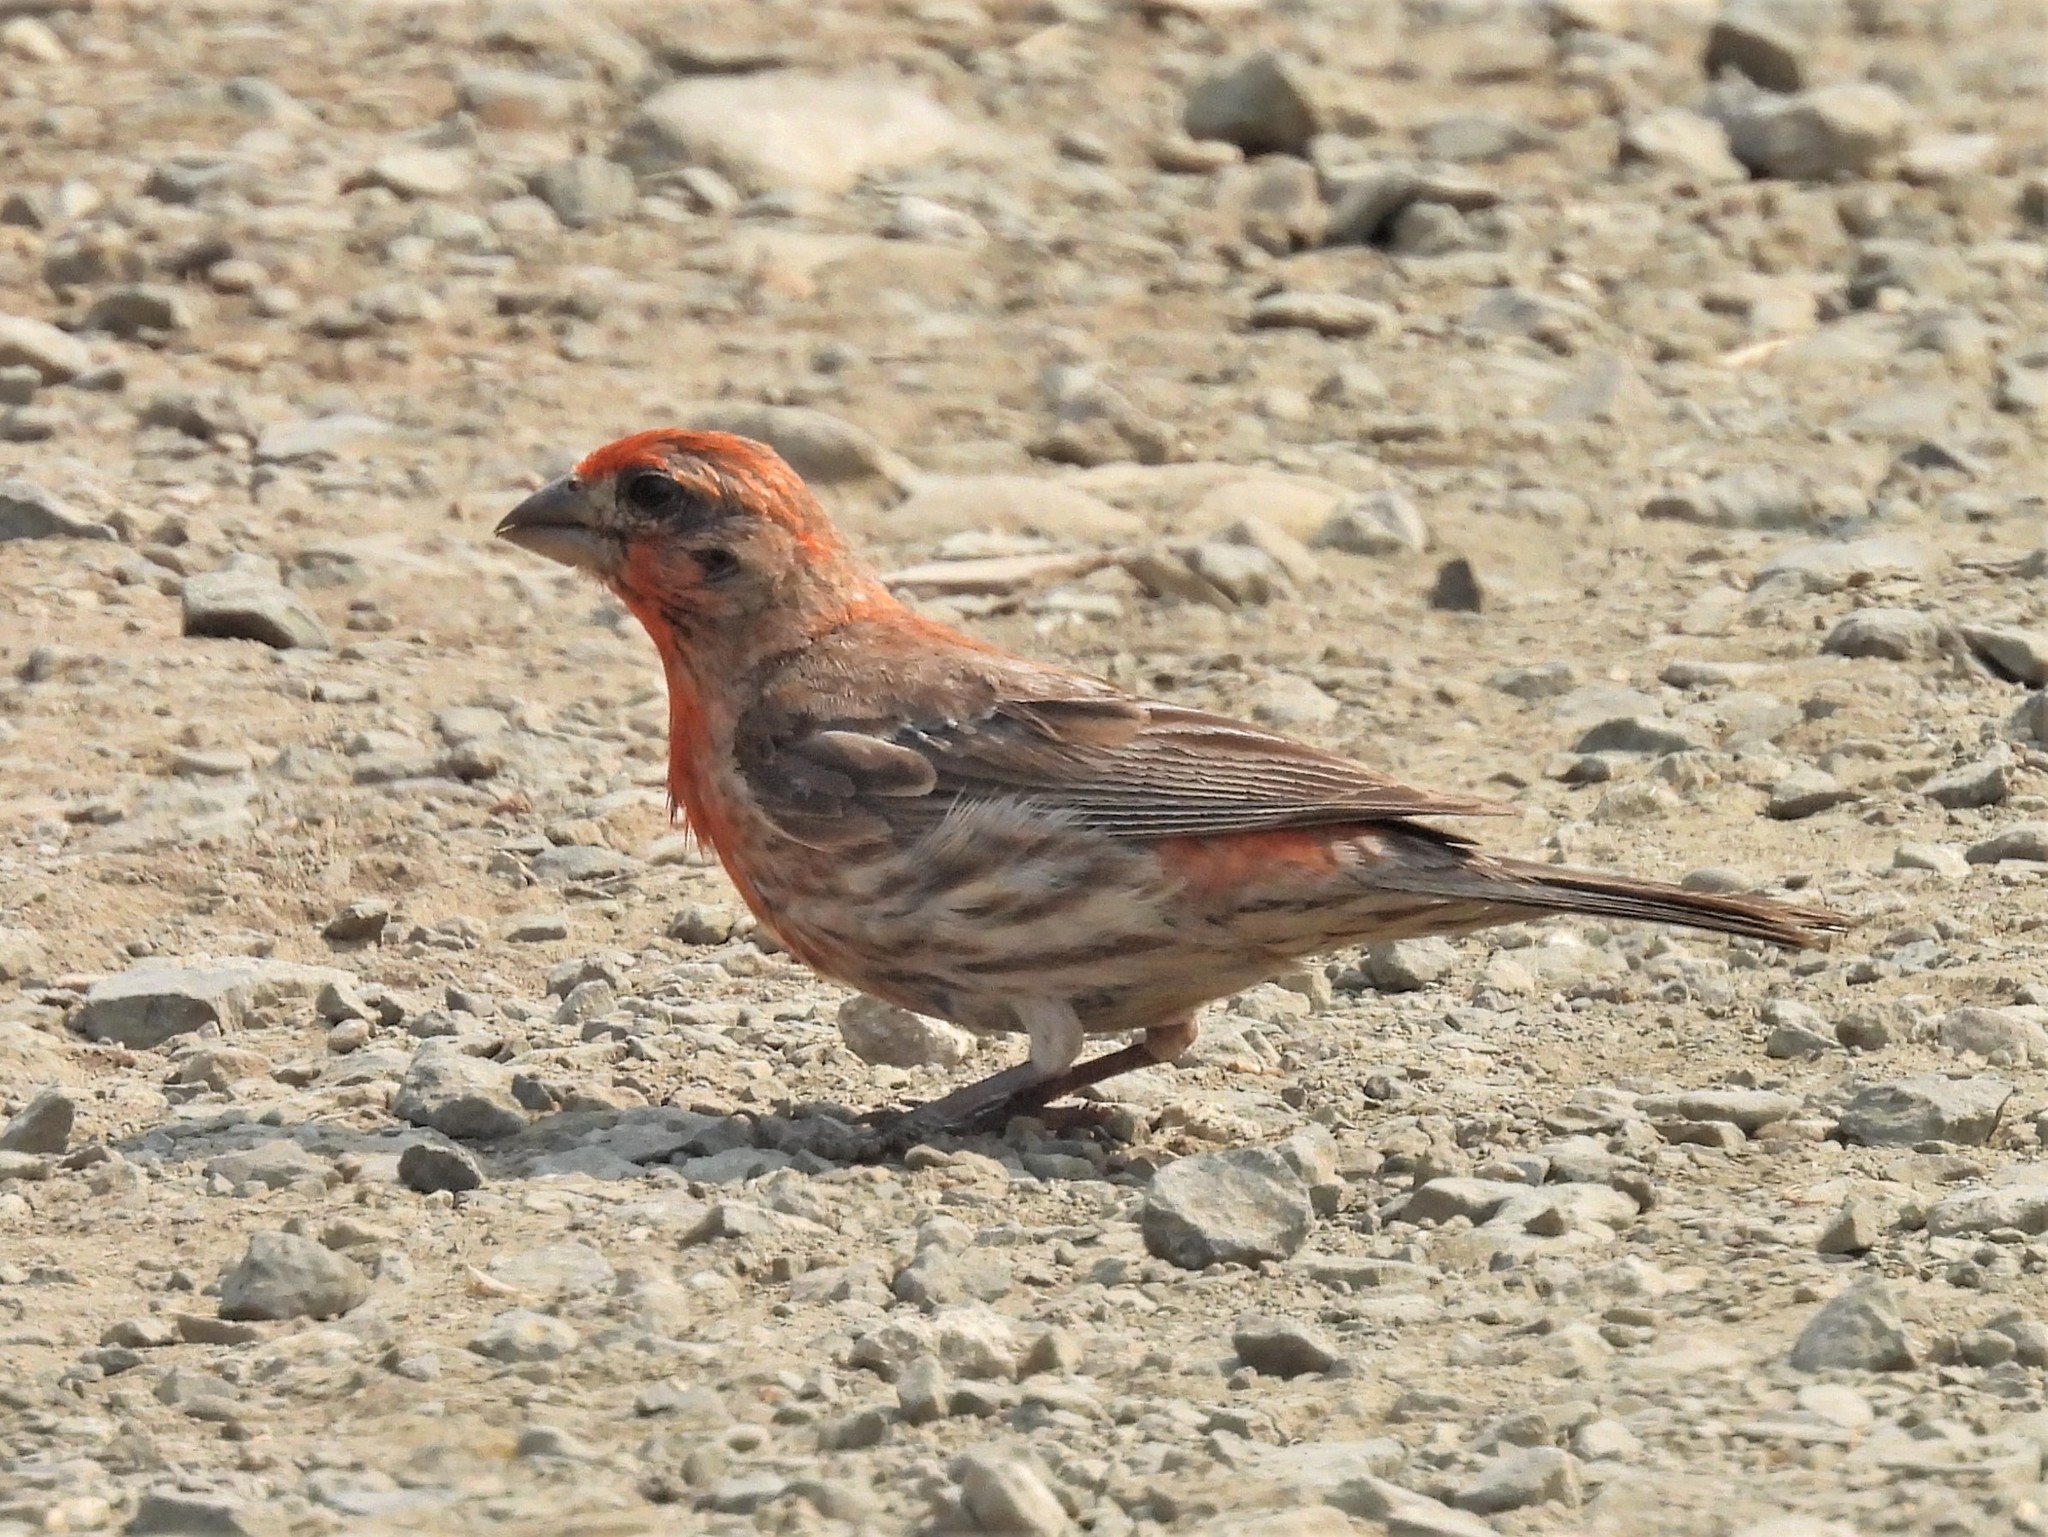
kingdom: Animalia
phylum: Chordata
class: Aves
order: Passeriformes
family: Fringillidae
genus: Haemorhous
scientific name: Haemorhous mexicanus
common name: House finch
